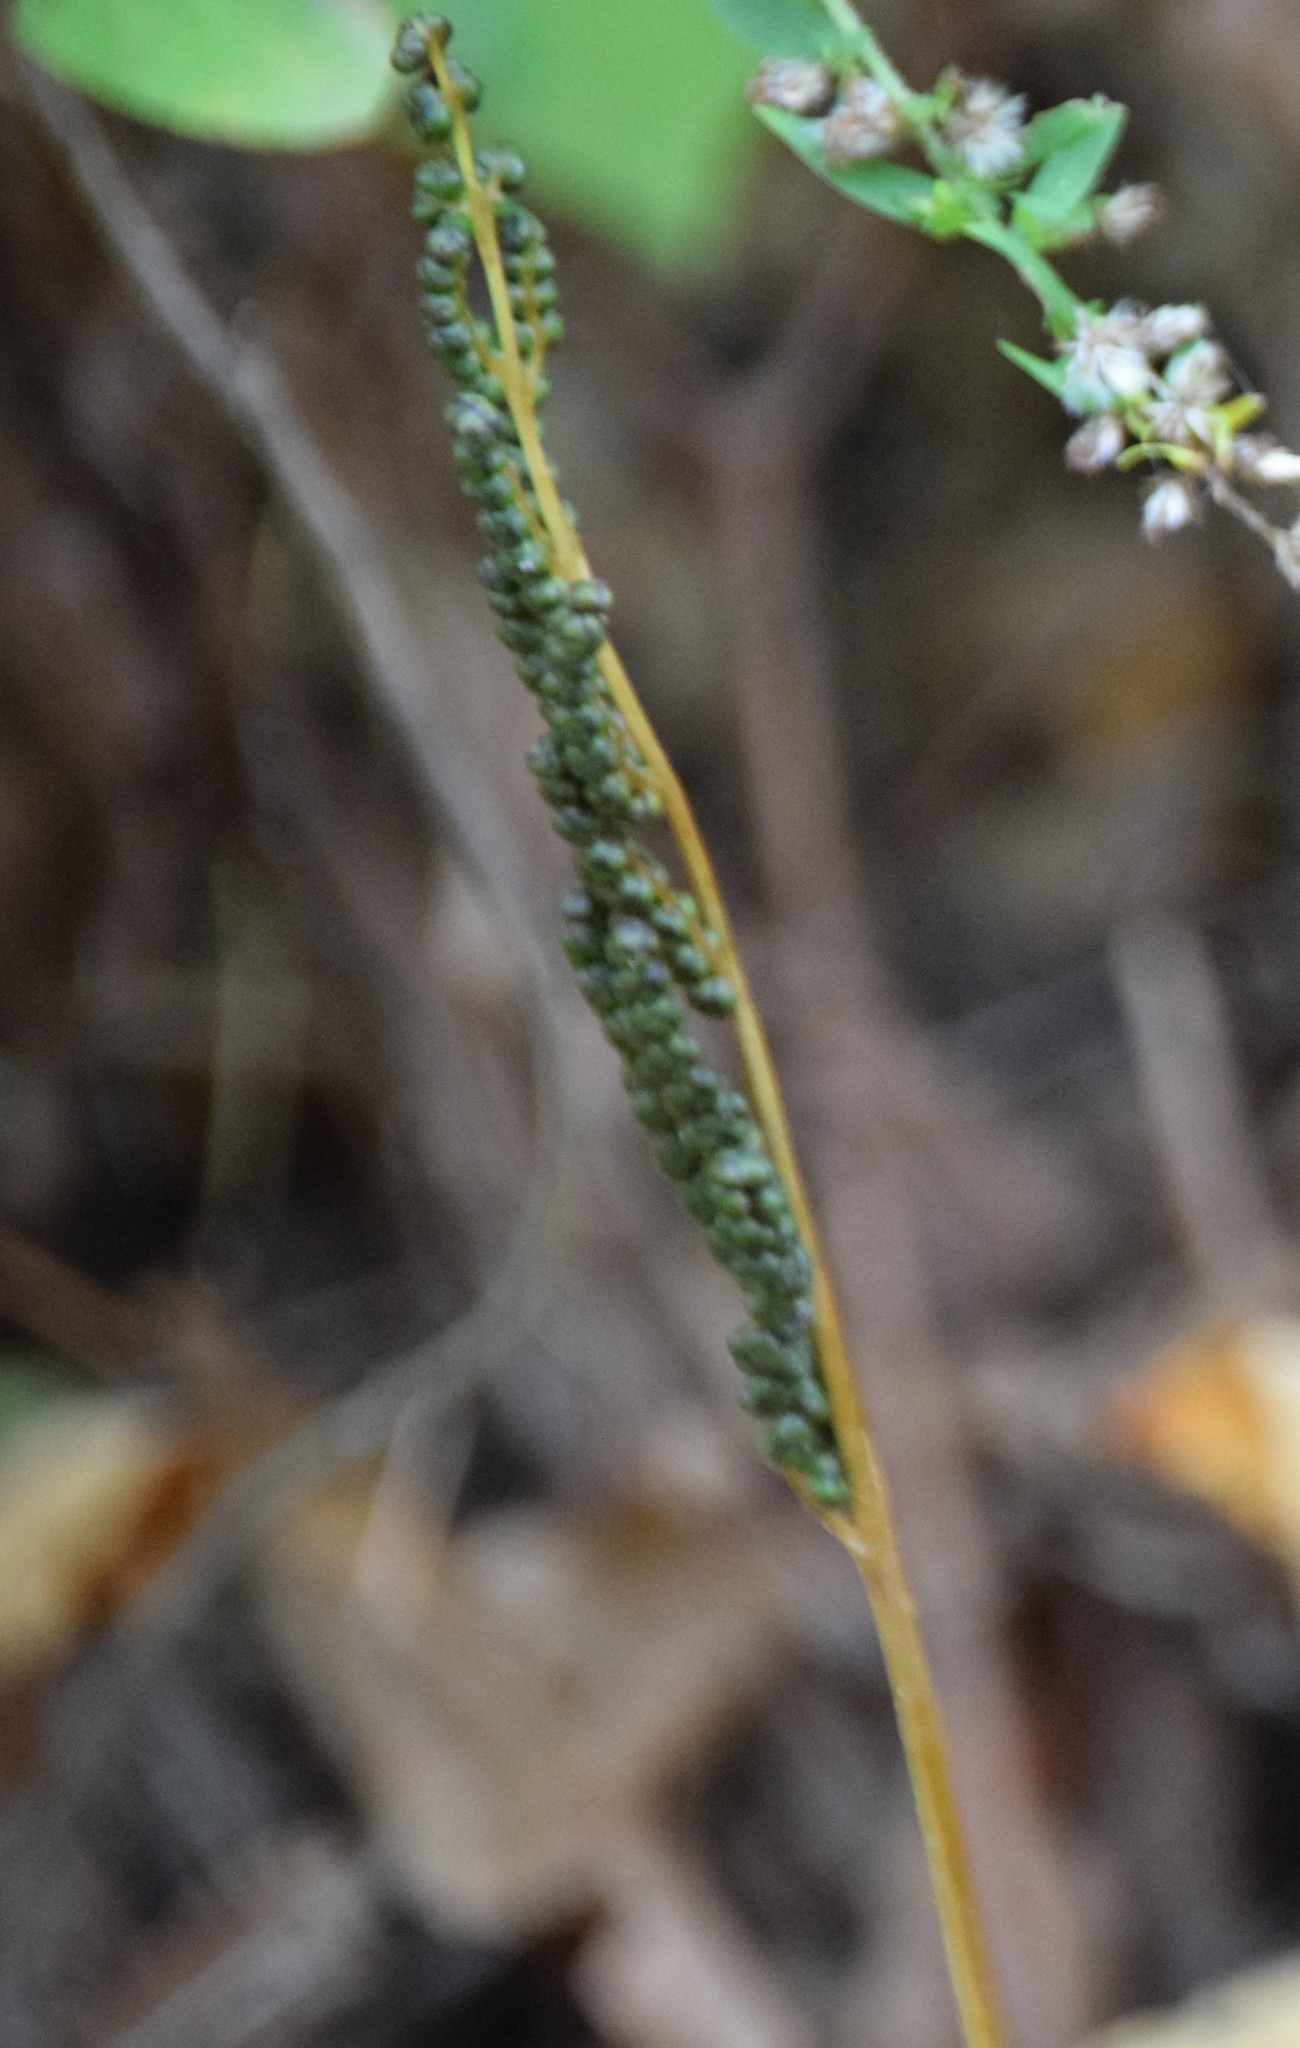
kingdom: Plantae
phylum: Tracheophyta
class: Polypodiopsida
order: Polypodiales
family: Onocleaceae
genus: Onoclea
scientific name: Onoclea sensibilis
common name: Sensitive fern
